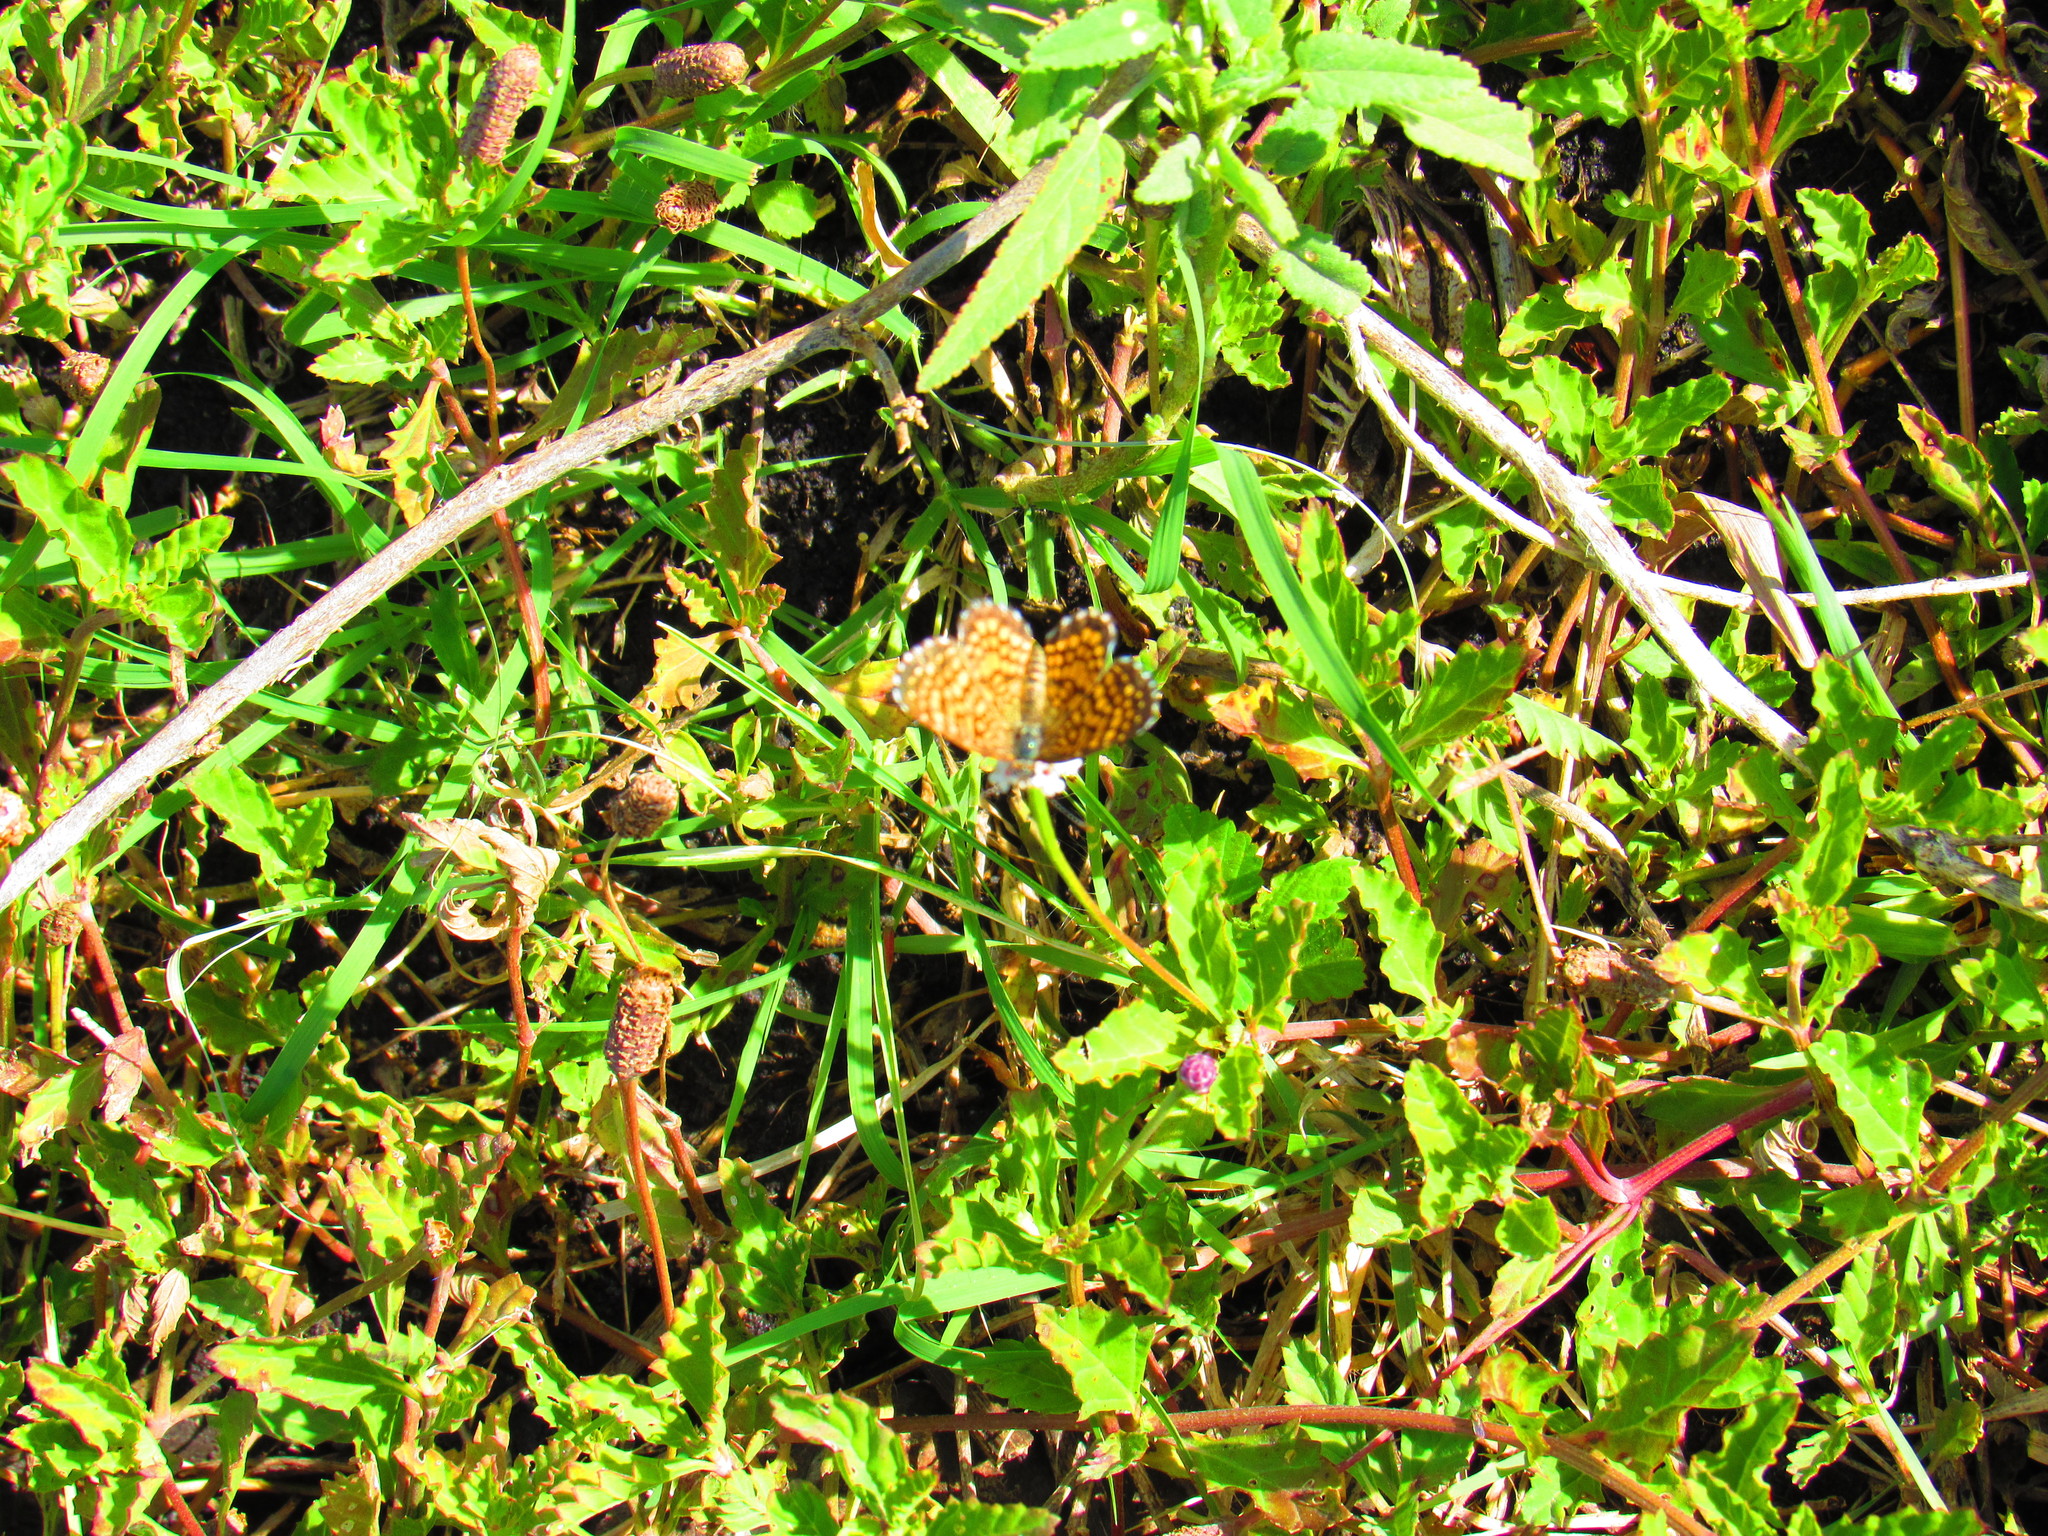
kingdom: Animalia
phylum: Arthropoda
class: Insecta
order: Lepidoptera
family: Nymphalidae
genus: Texola
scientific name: Texola elada
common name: Elada checkerspot
